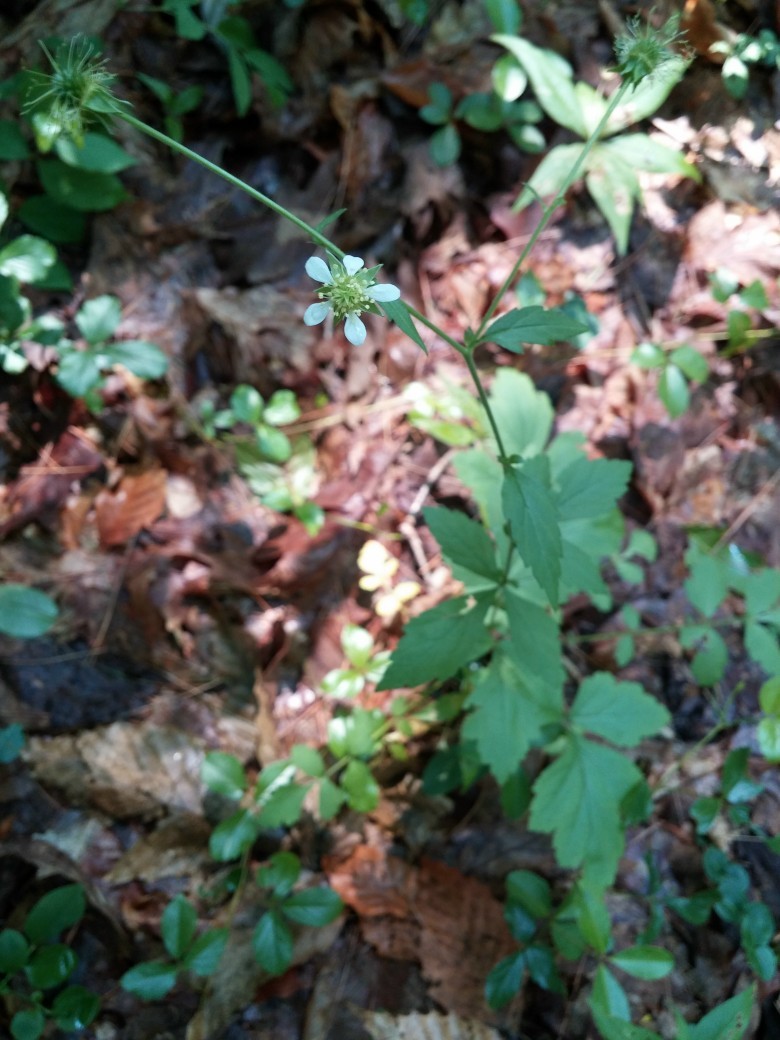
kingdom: Plantae
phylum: Tracheophyta
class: Magnoliopsida
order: Rosales
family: Rosaceae
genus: Geum
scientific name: Geum canadense
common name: White avens
